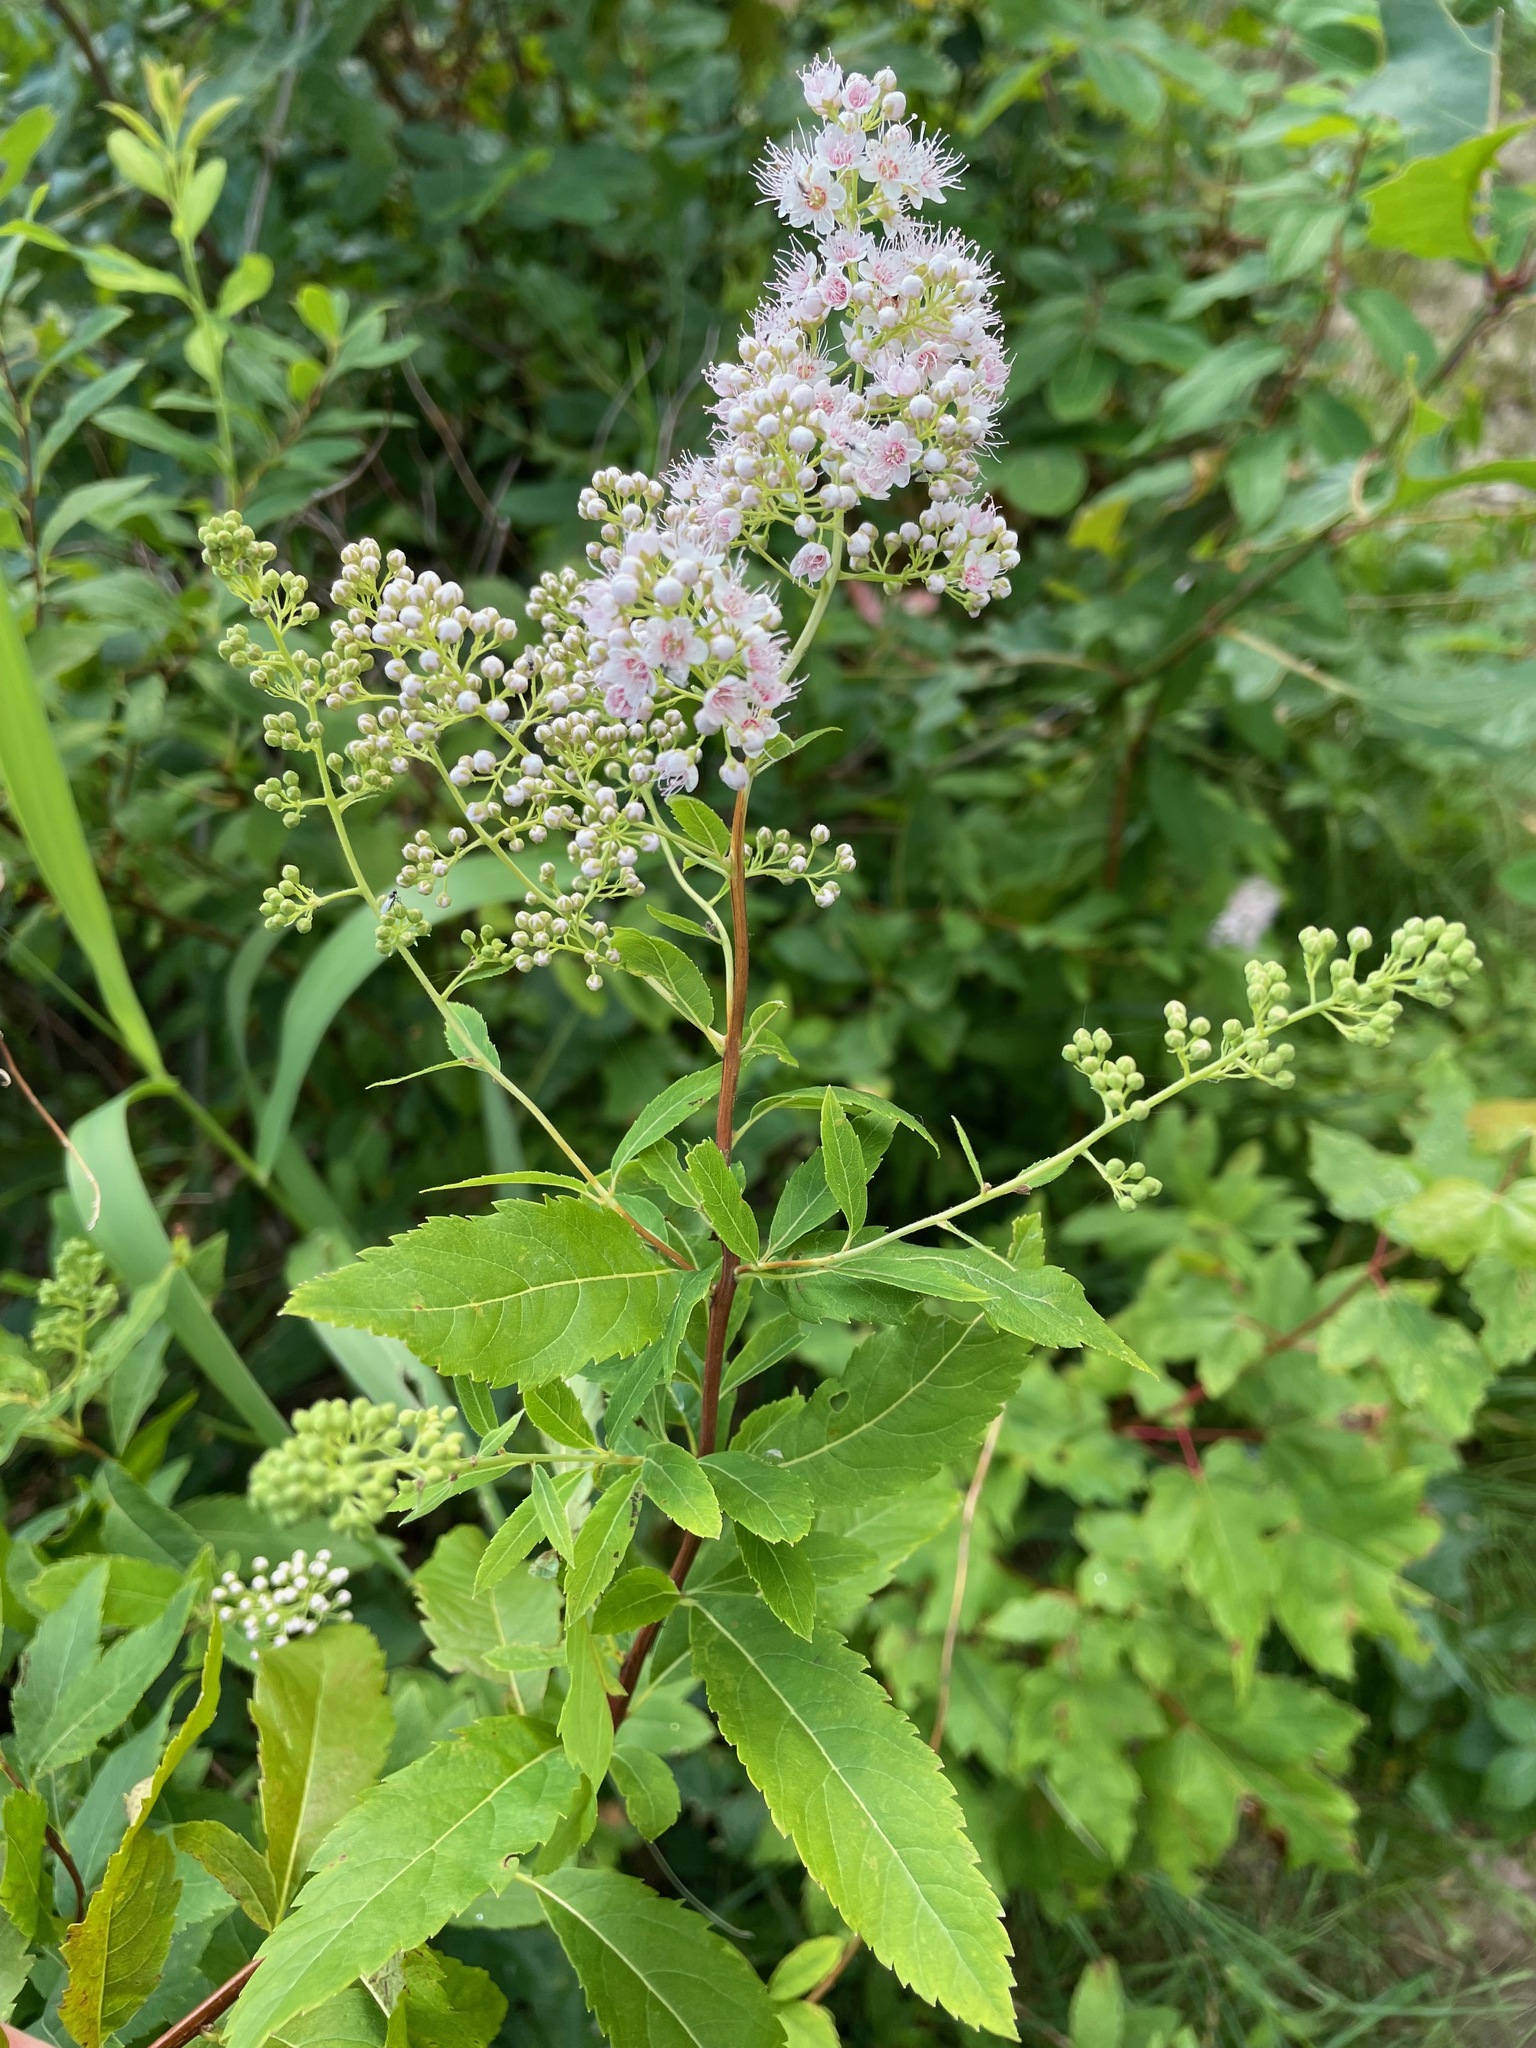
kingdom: Plantae
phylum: Tracheophyta
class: Magnoliopsida
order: Rosales
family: Rosaceae
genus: Spiraea
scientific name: Spiraea alba
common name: Pale bridewort
